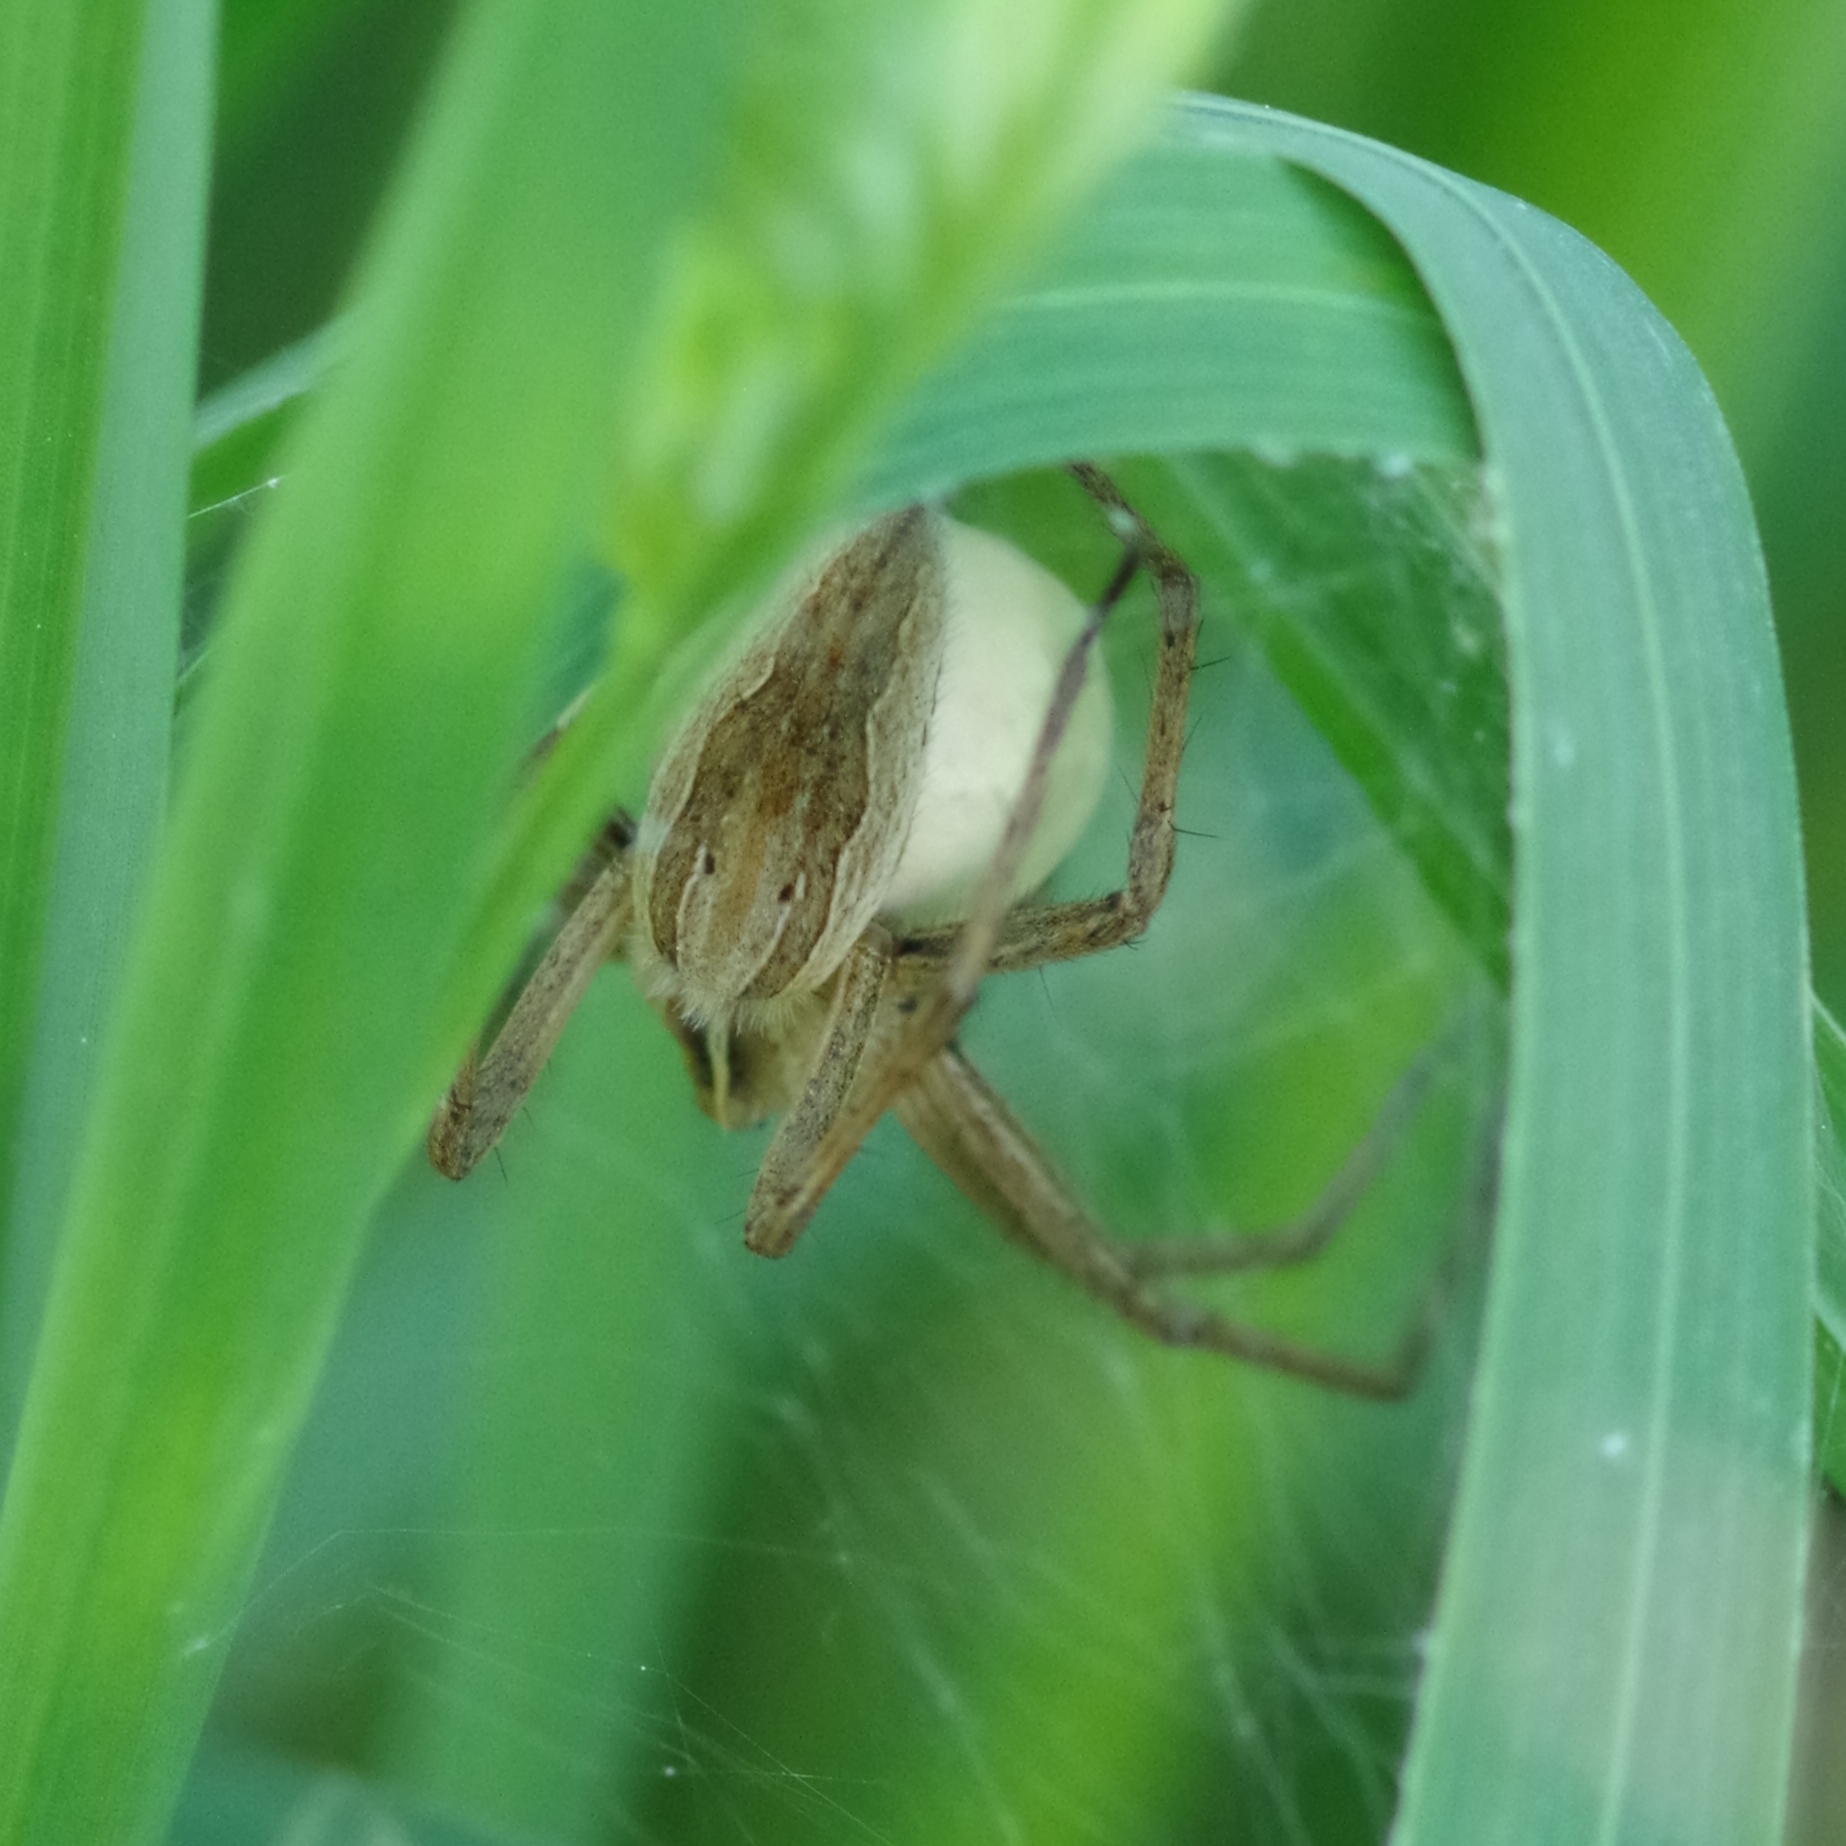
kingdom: Animalia
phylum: Arthropoda
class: Arachnida
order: Araneae
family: Pisauridae
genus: Pisaura
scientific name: Pisaura mirabilis
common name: Tent spider
